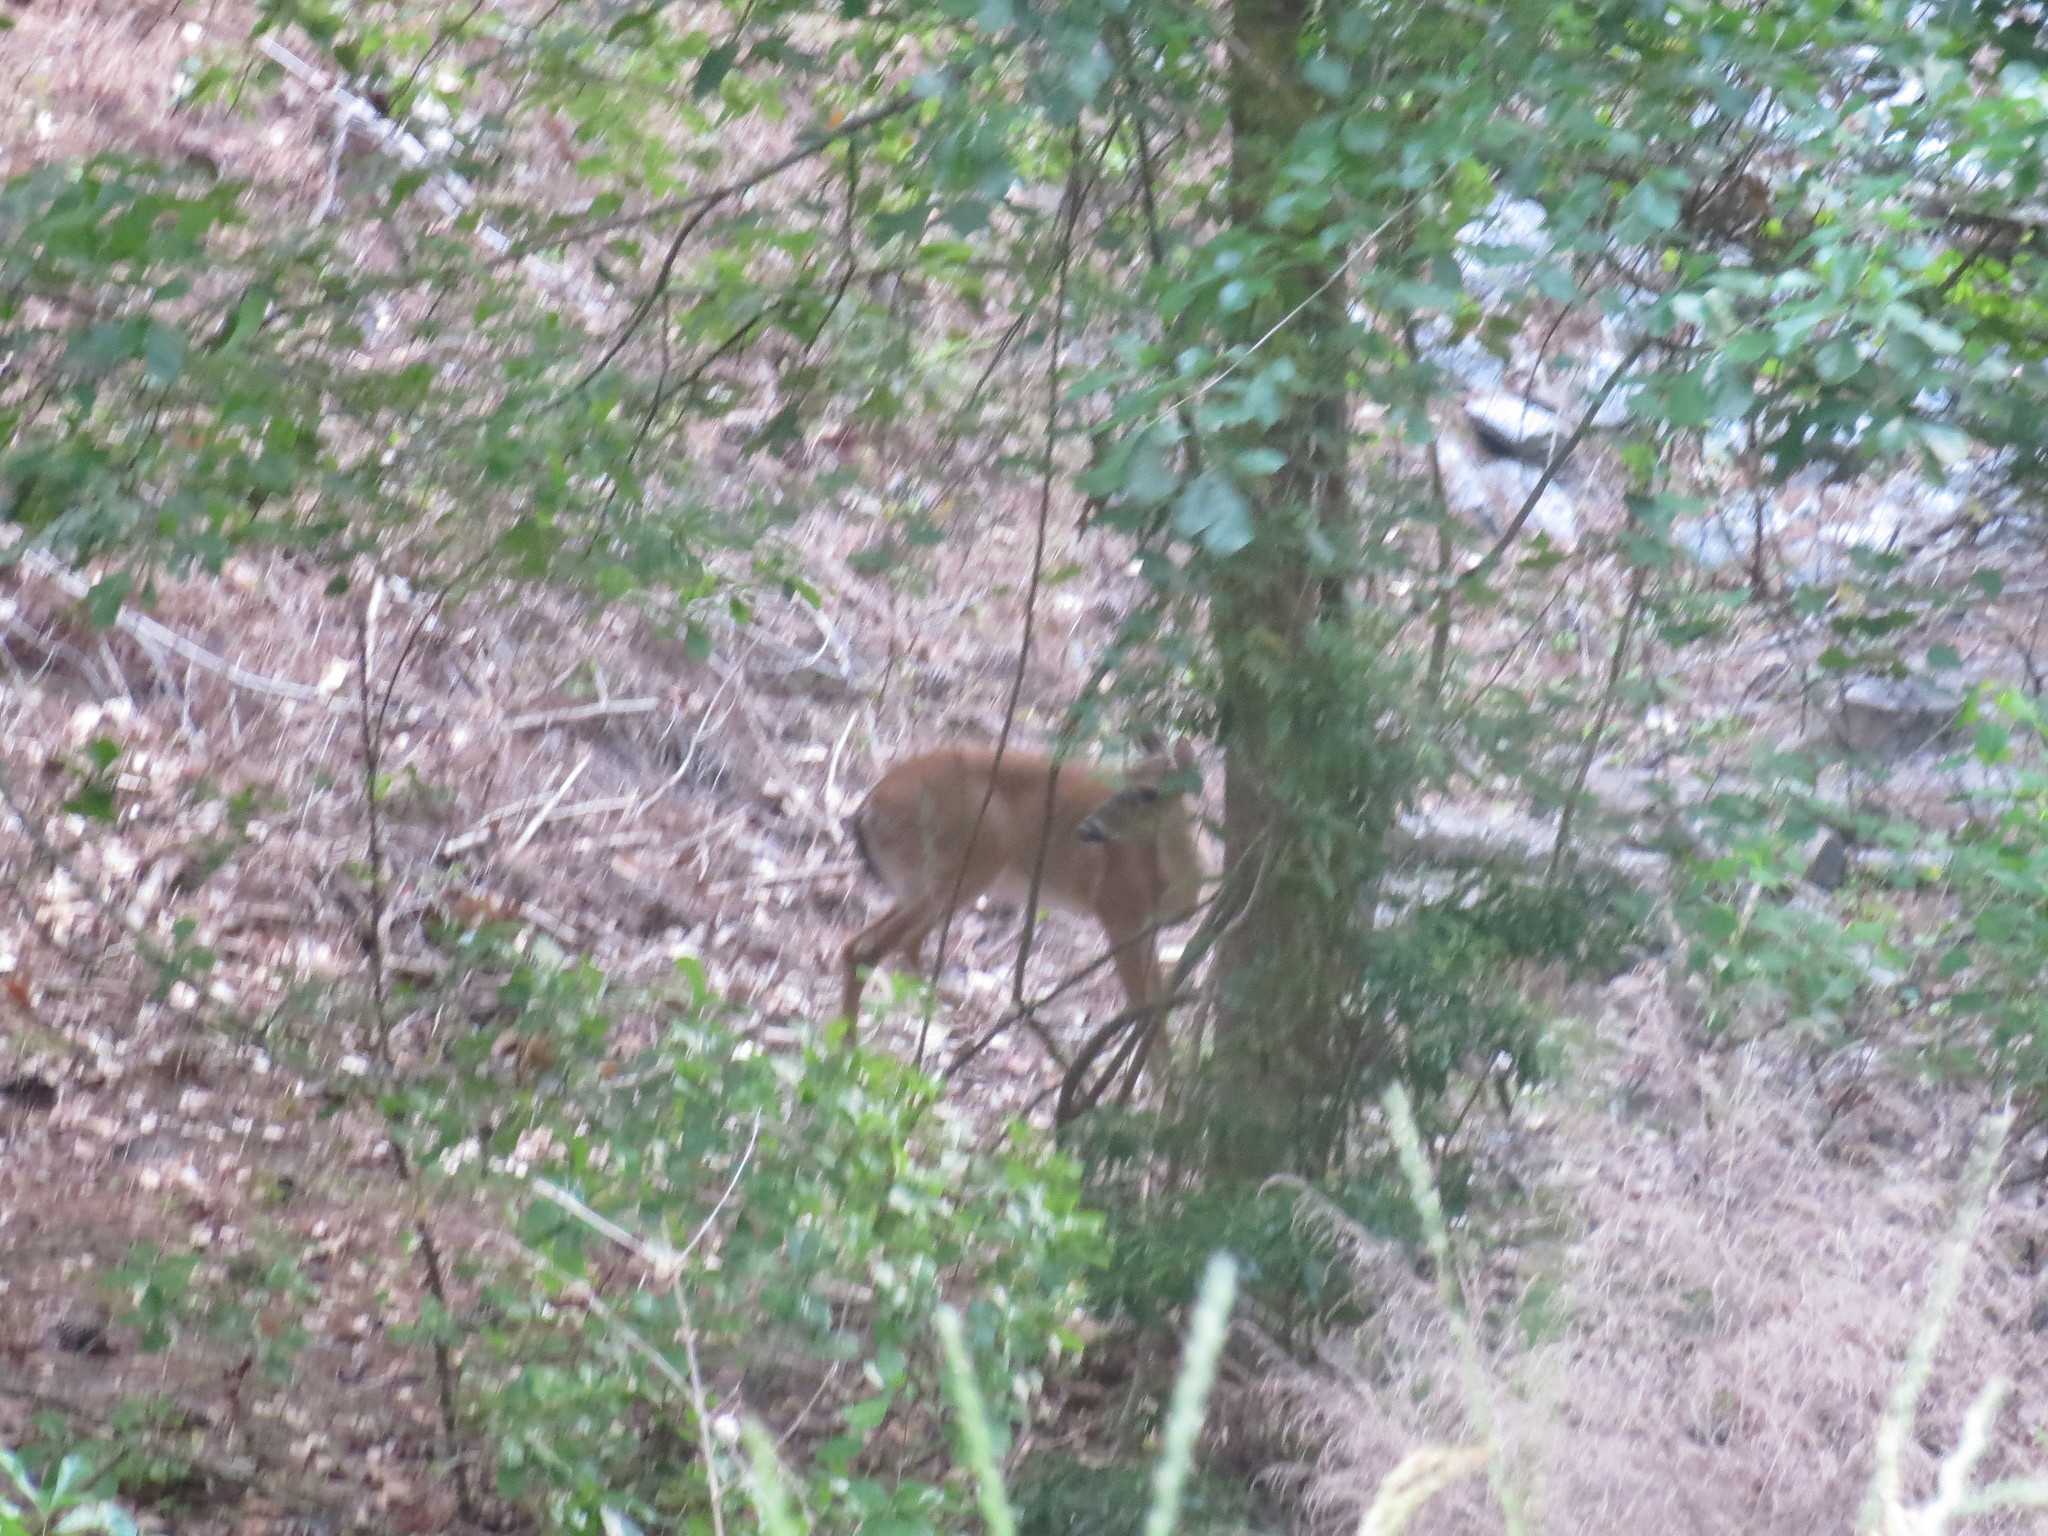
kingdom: Animalia
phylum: Chordata
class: Mammalia
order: Artiodactyla
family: Cervidae
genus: Odocoileus
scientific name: Odocoileus virginianus
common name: White-tailed deer
